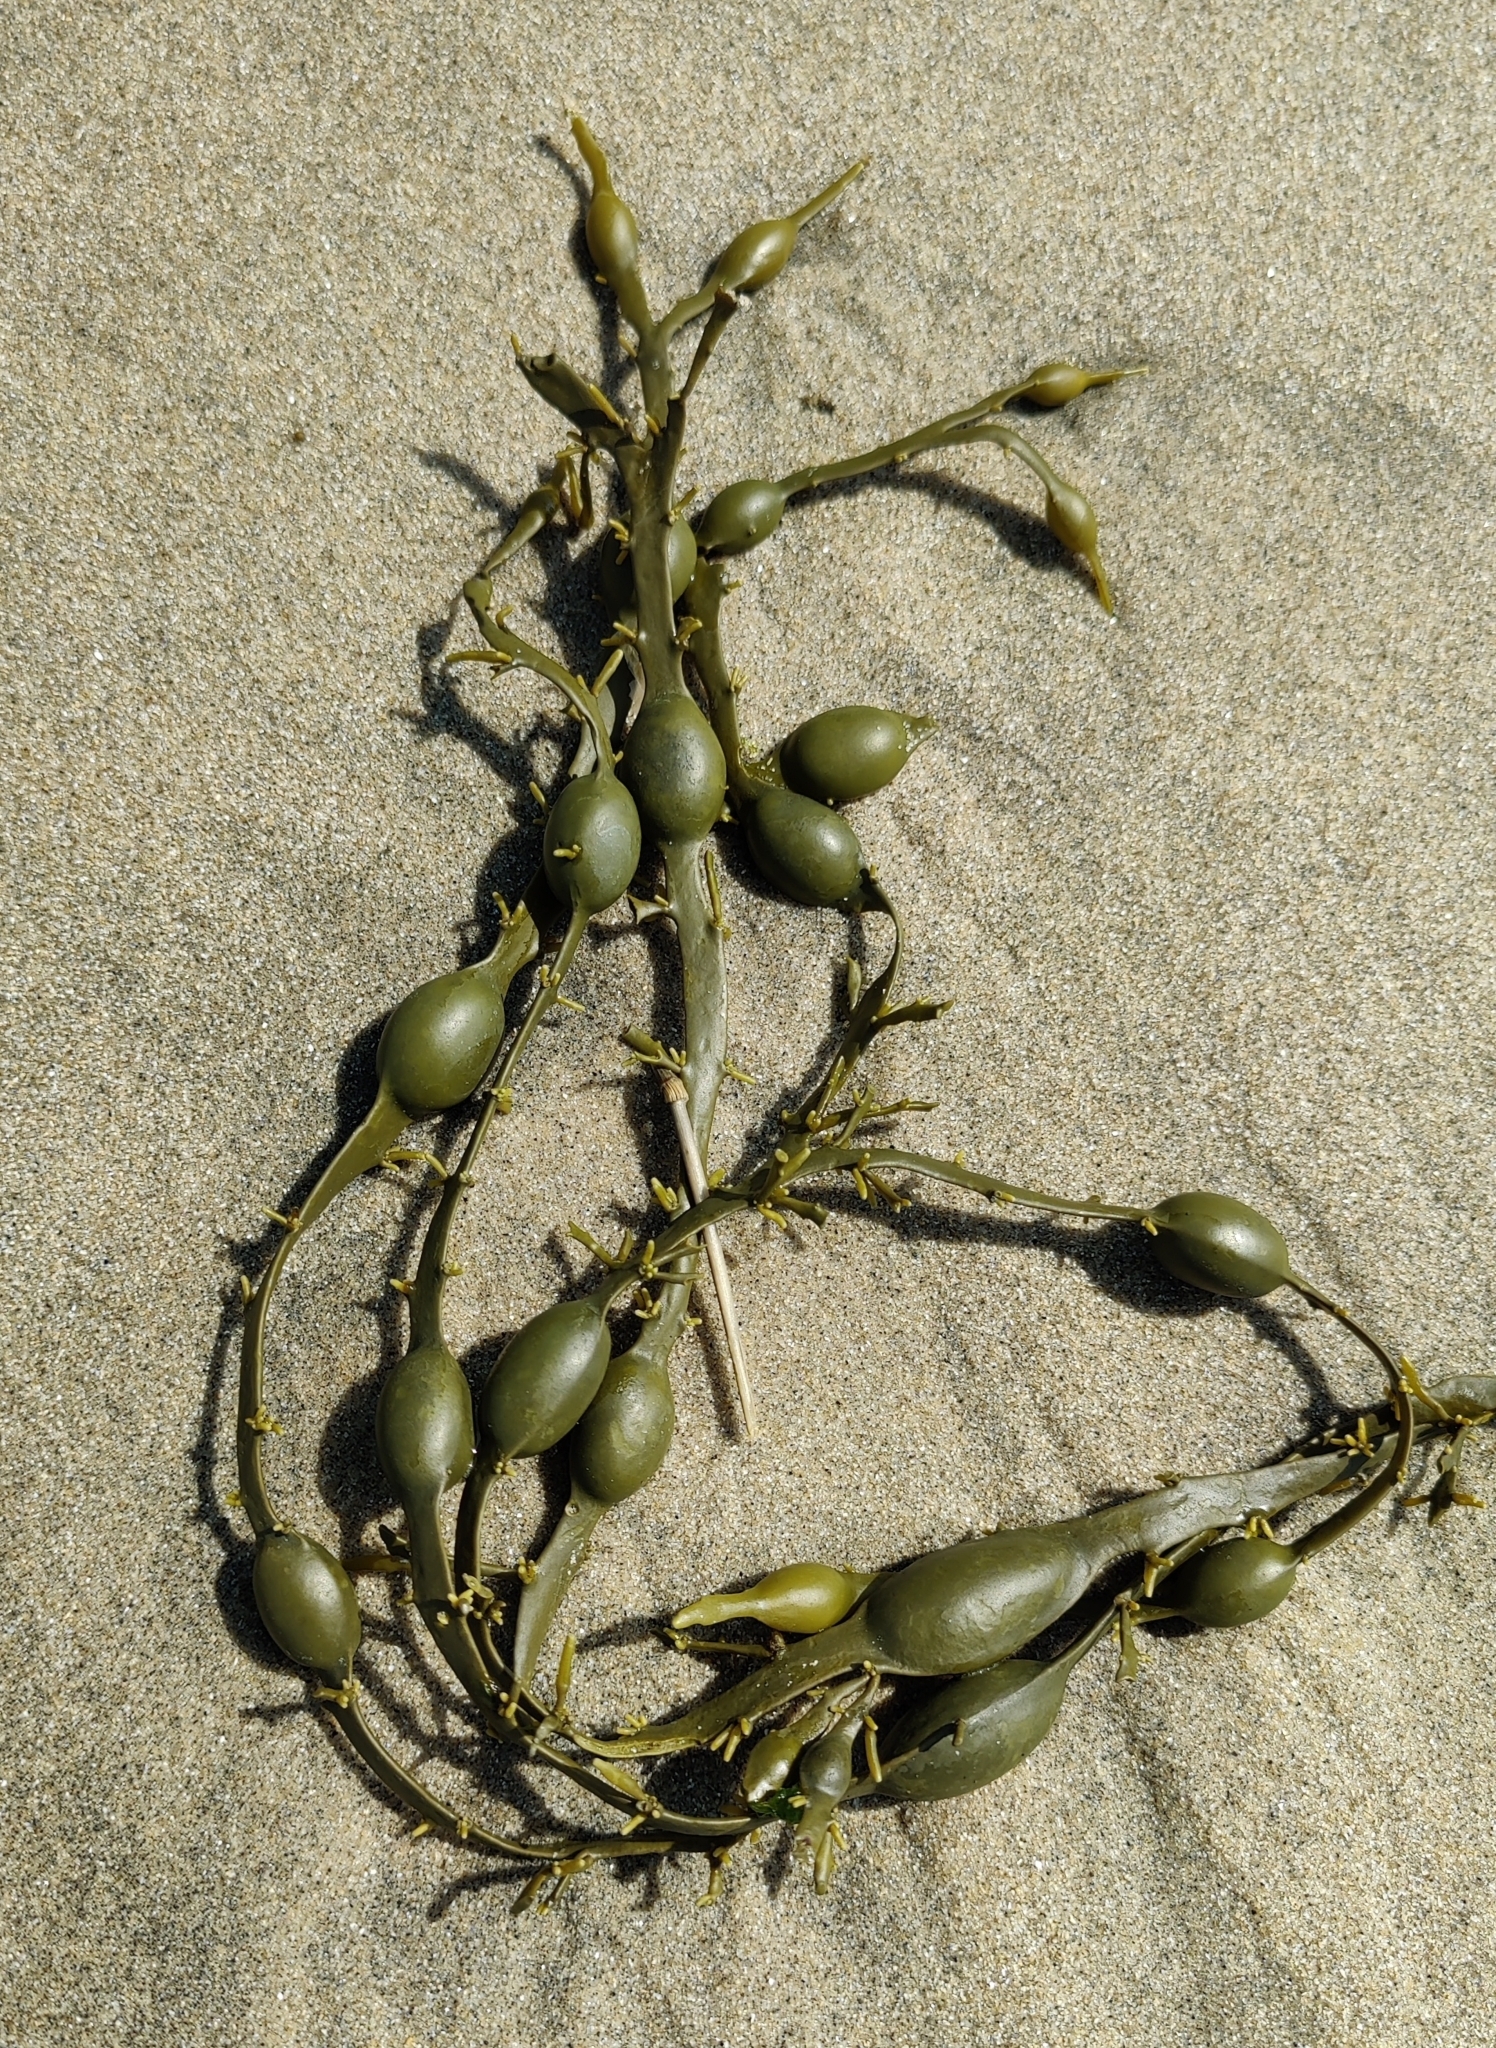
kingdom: Chromista
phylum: Ochrophyta
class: Phaeophyceae
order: Fucales
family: Fucaceae
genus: Ascophyllum
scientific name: Ascophyllum nodosum
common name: Knotted wrack
